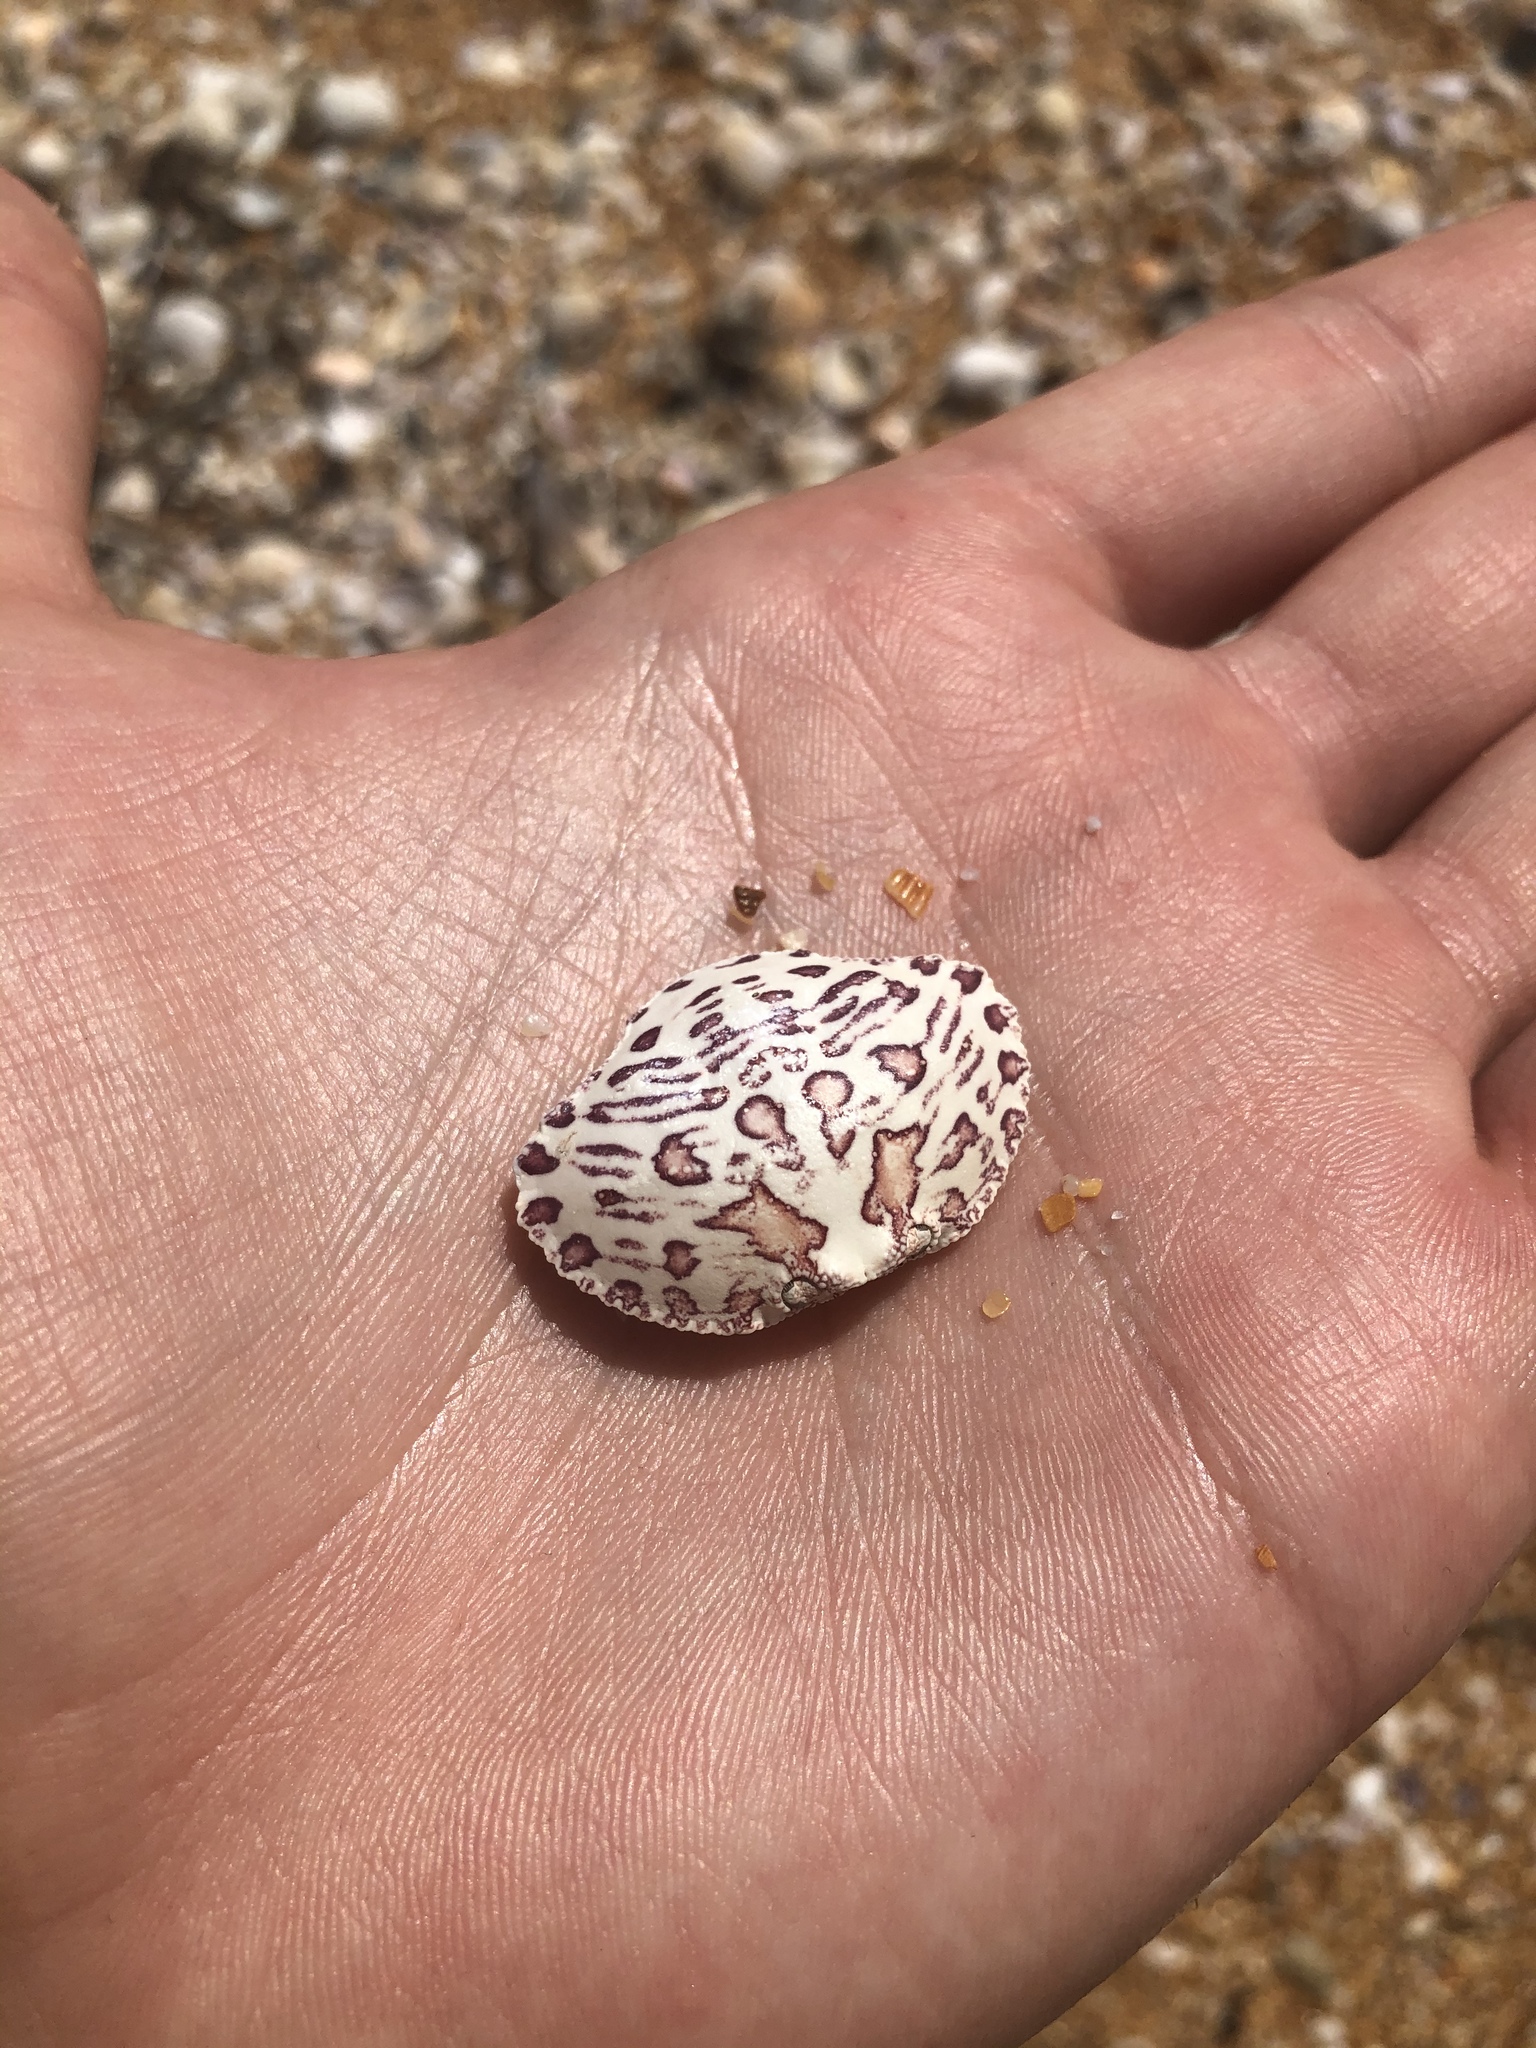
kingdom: Animalia
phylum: Arthropoda
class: Malacostraca
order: Decapoda
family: Aethridae
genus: Hepatus
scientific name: Hepatus epheliticus
